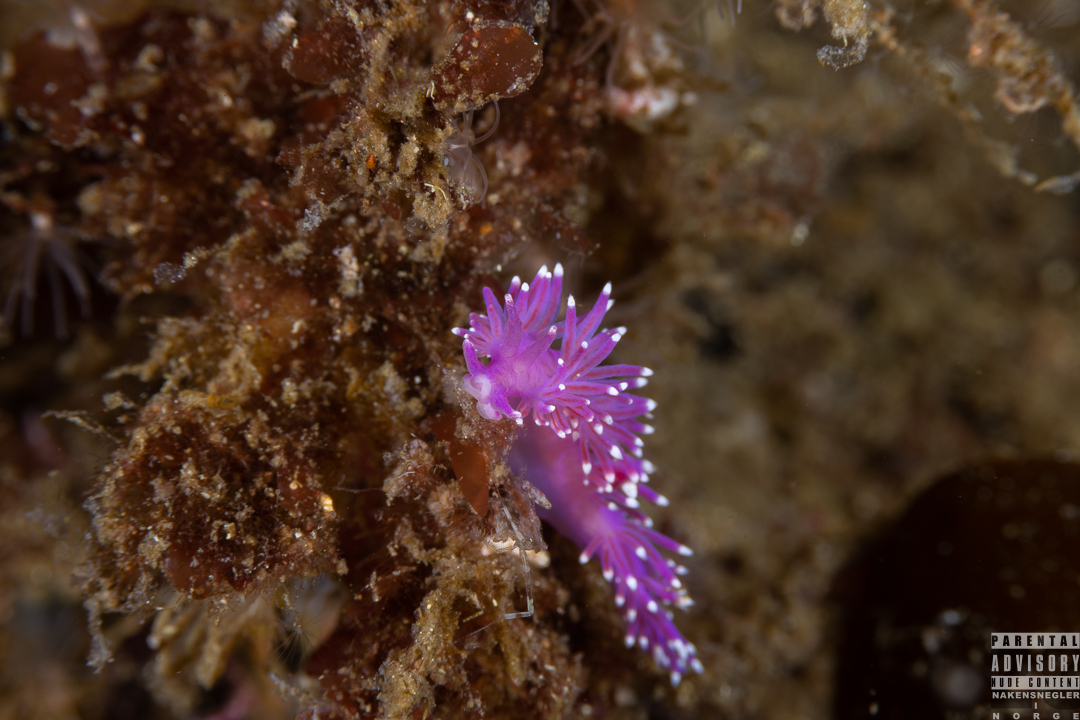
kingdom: Animalia
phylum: Mollusca
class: Gastropoda
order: Nudibranchia
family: Flabellinidae
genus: Edmundsella
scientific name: Edmundsella pedata
